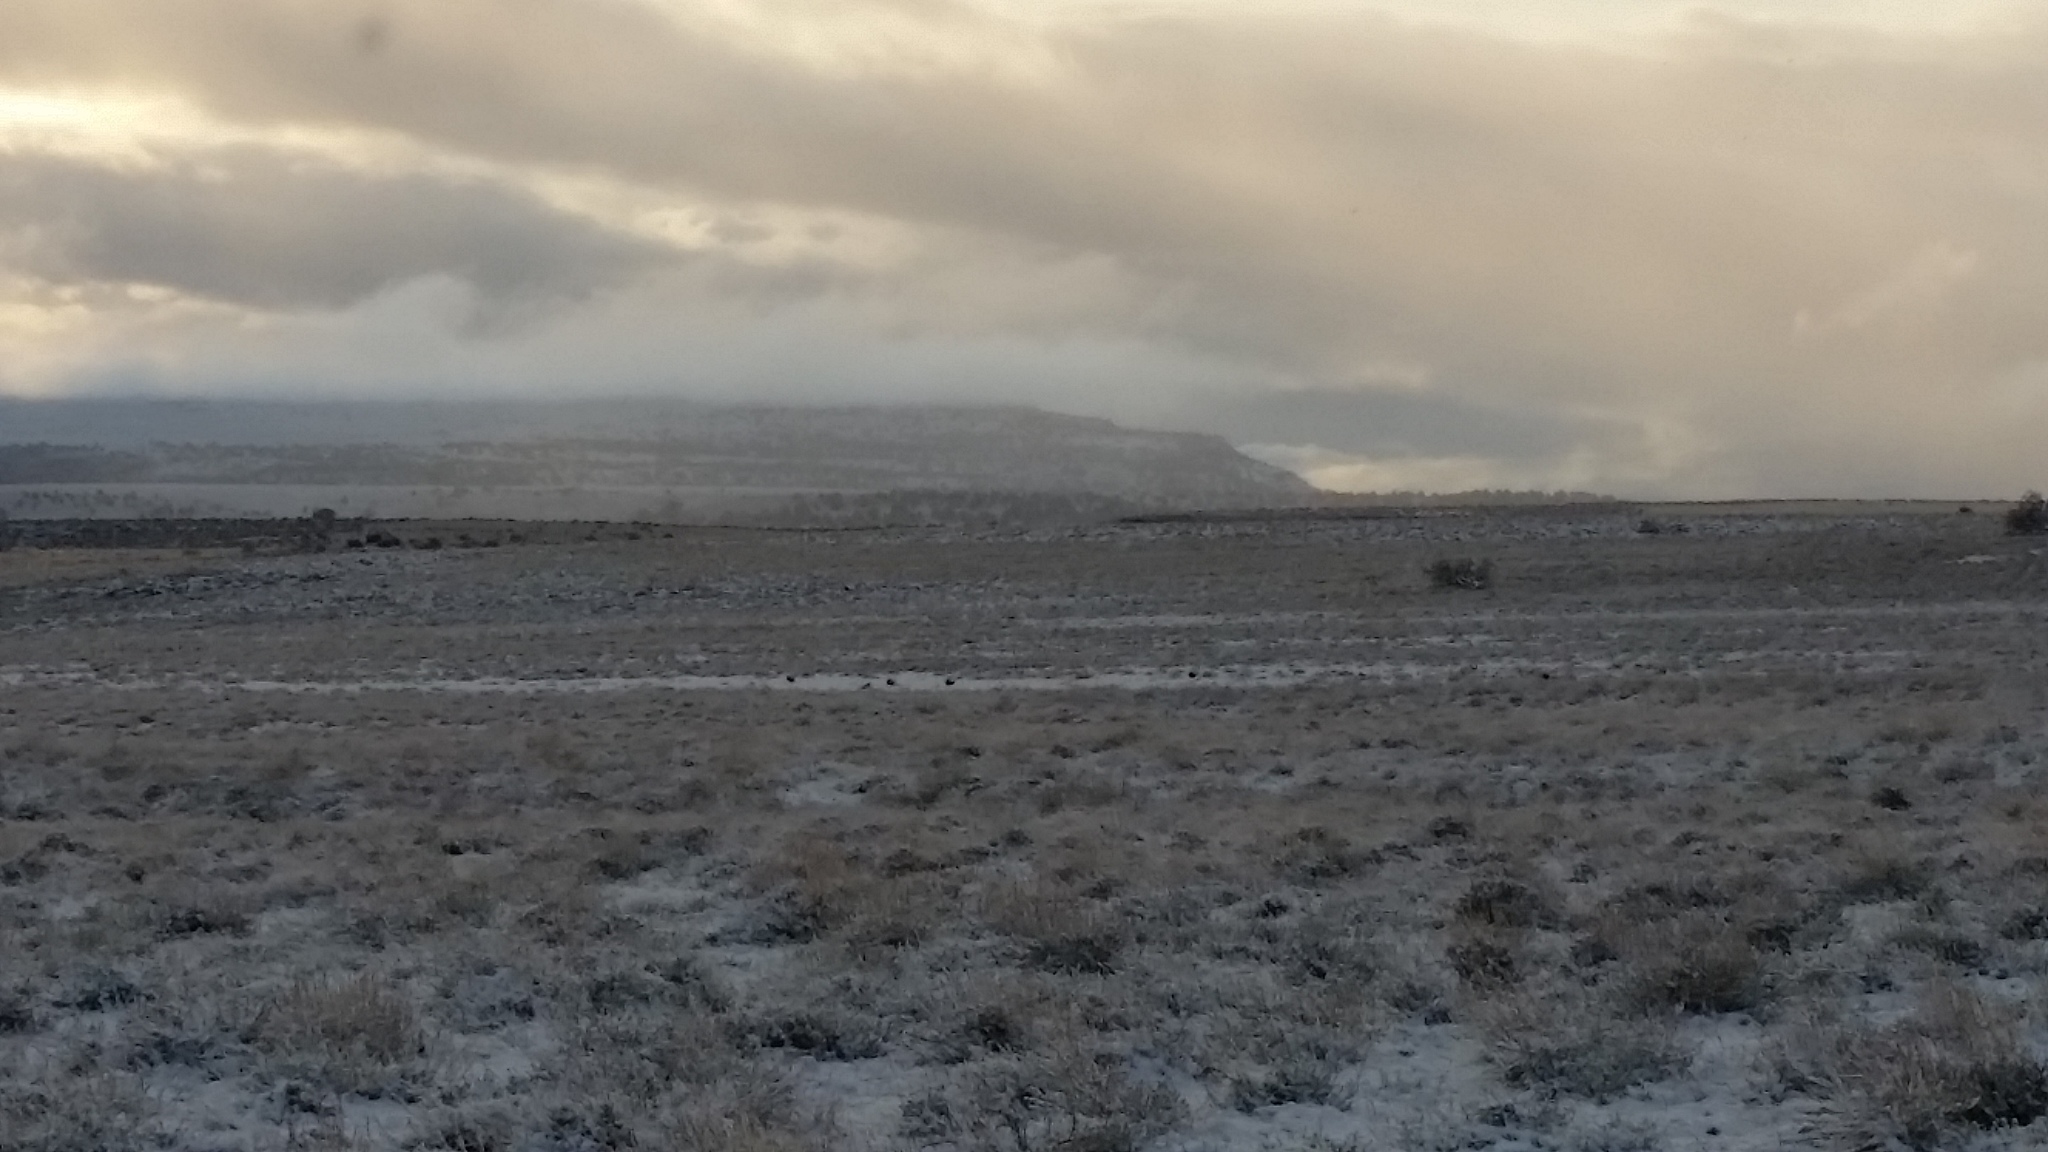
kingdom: Animalia
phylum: Chordata
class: Aves
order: Galliformes
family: Phasianidae
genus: Centrocercus
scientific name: Centrocercus urophasianus
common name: Sage grouse
